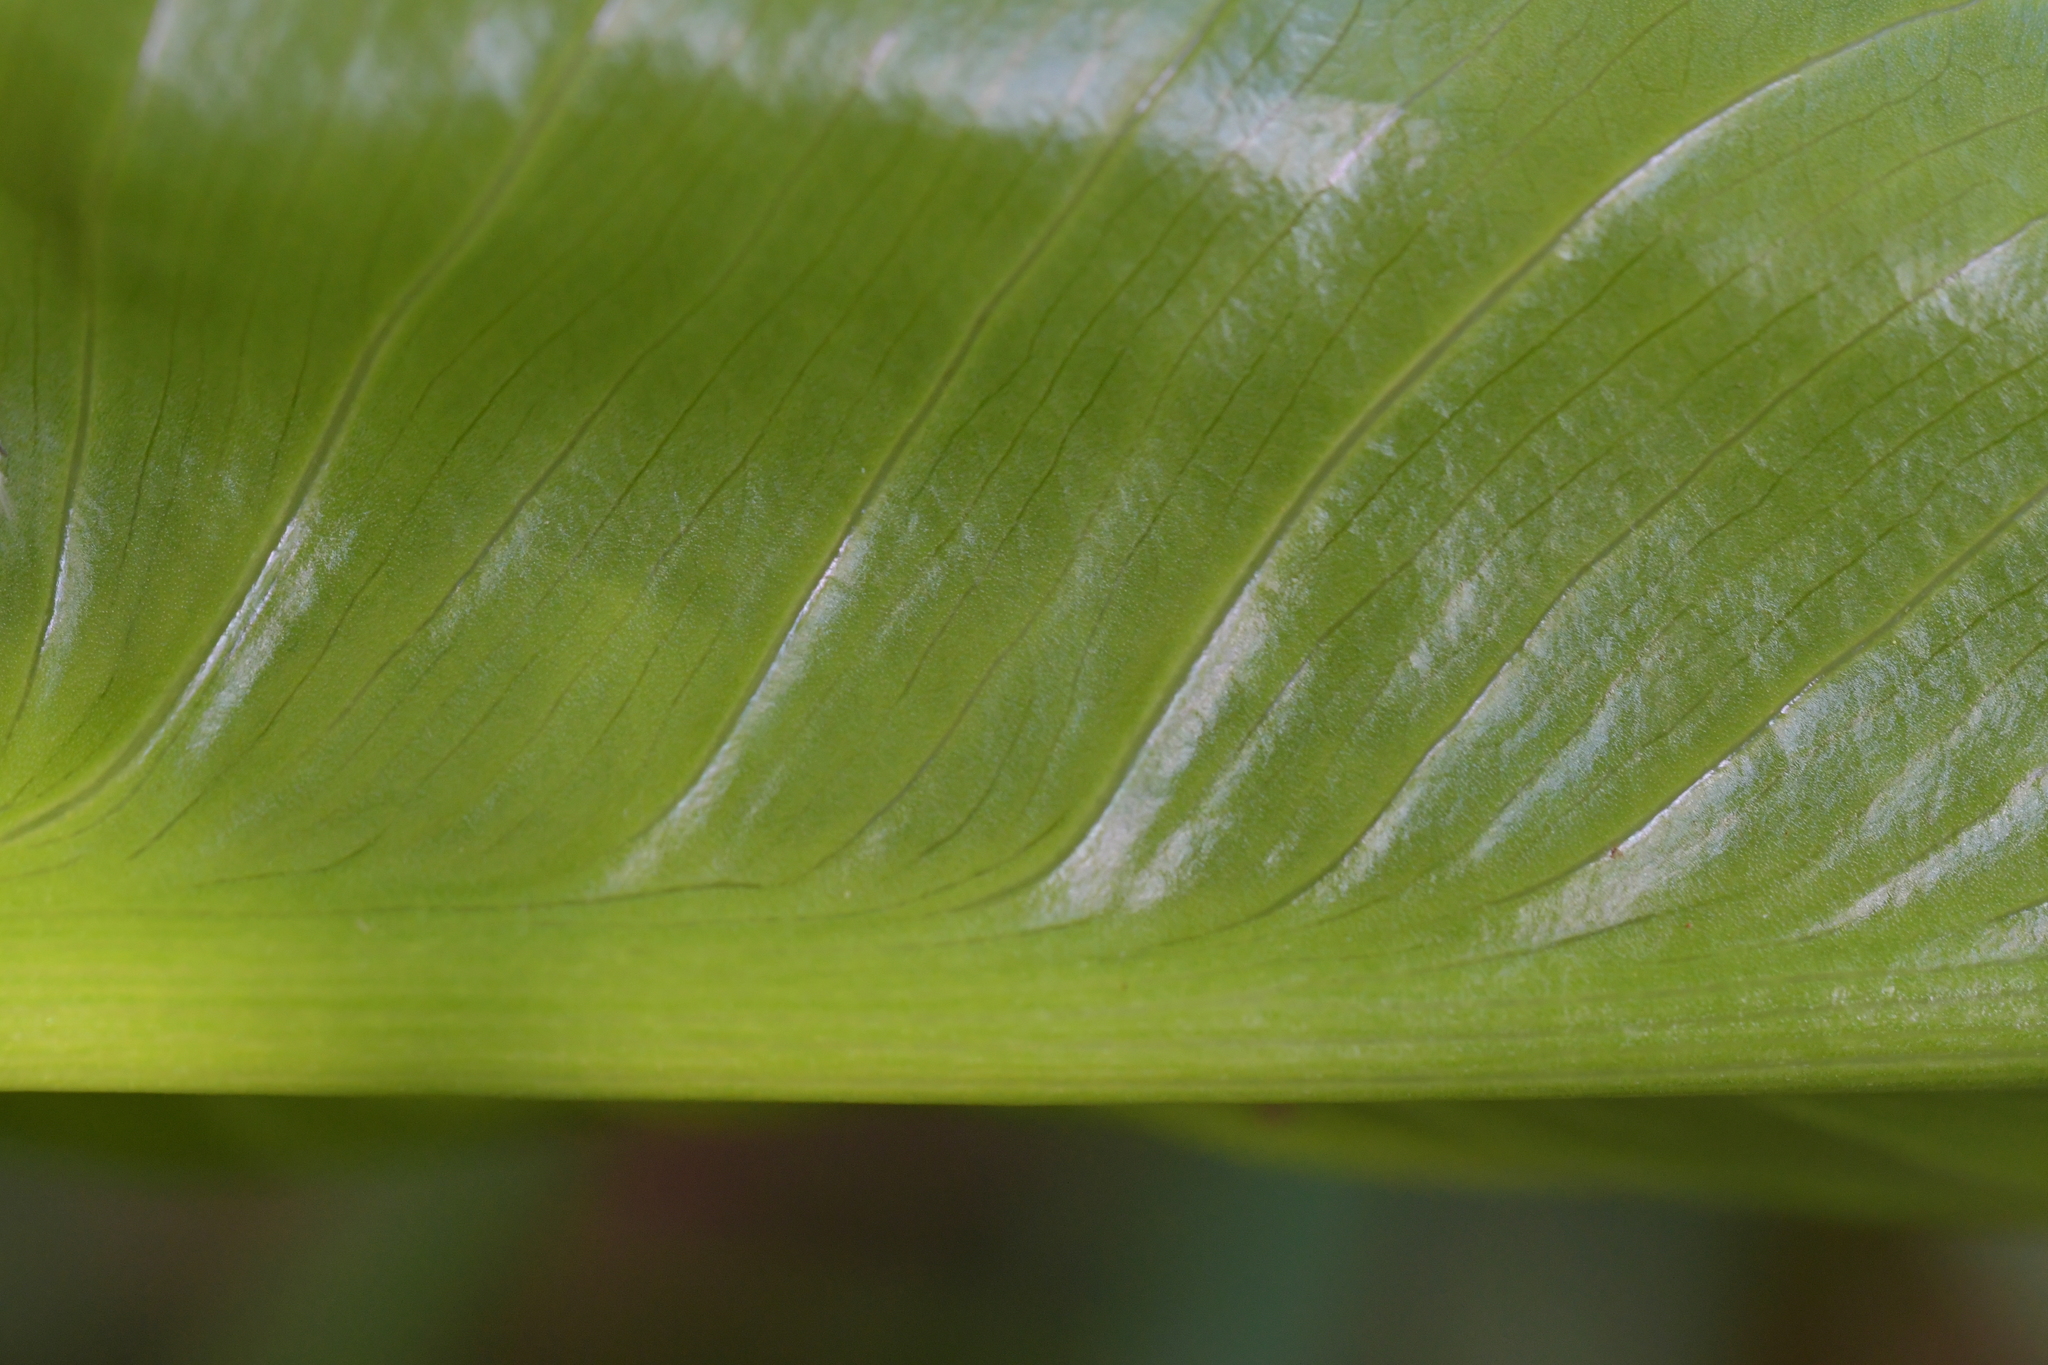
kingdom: Plantae
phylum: Tracheophyta
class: Liliopsida
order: Alismatales
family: Araceae
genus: Zantedeschia
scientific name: Zantedeschia aethiopica
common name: Altar-lily
